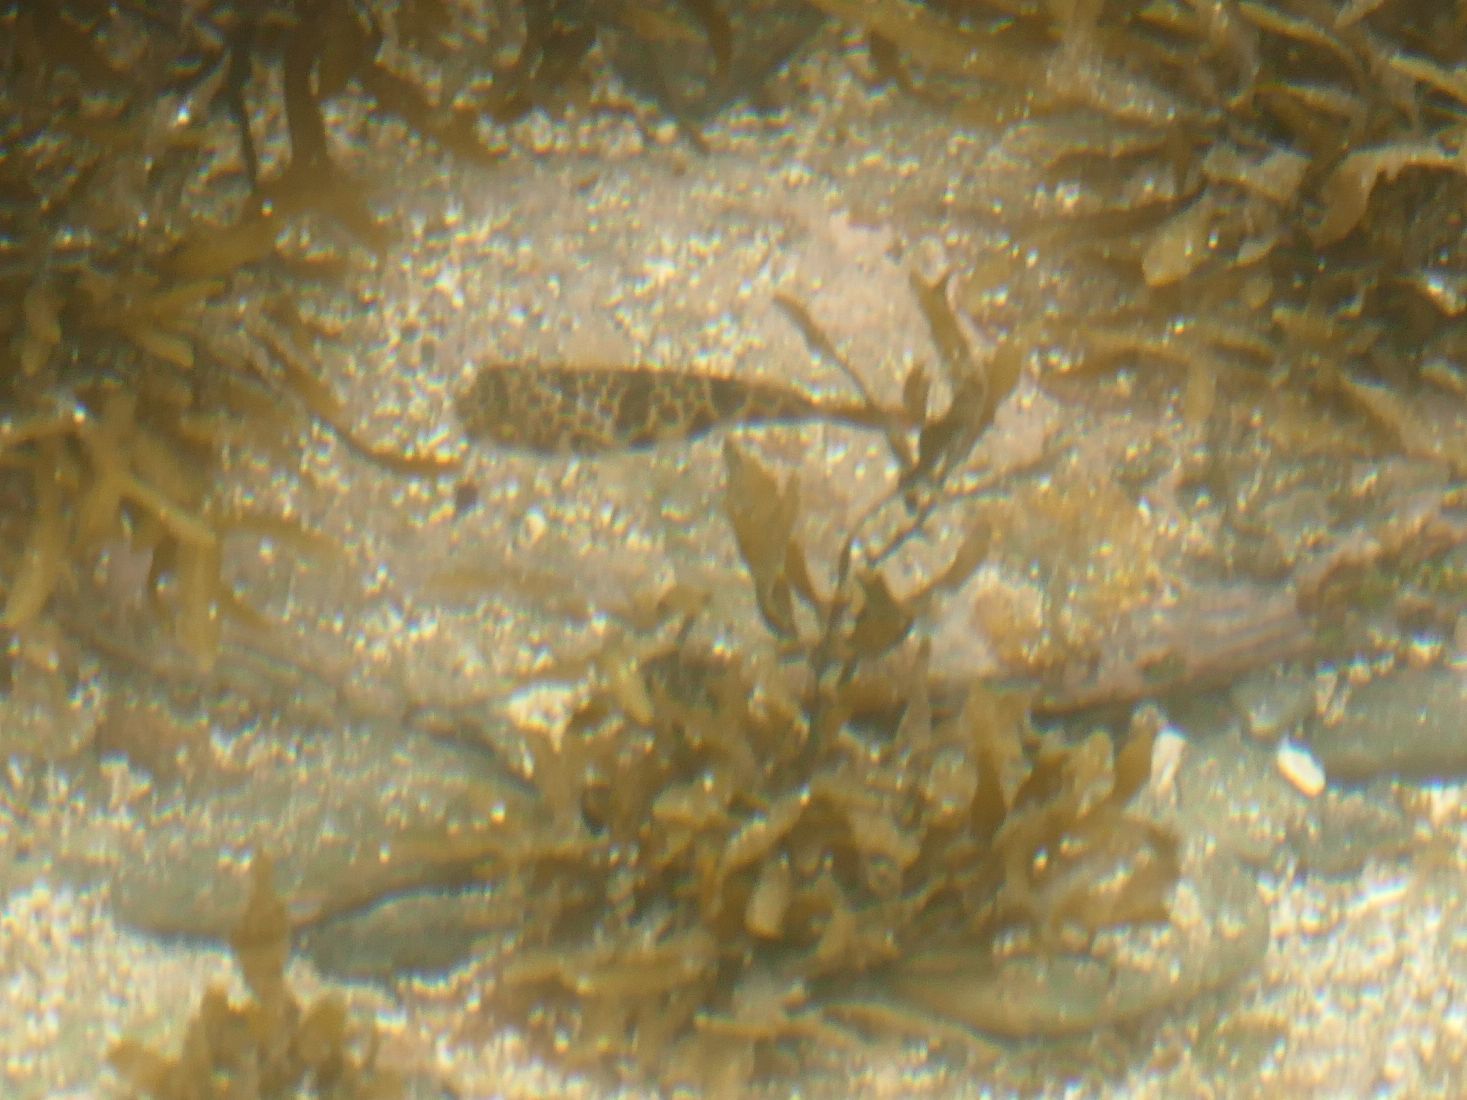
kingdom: Animalia
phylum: Chordata
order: Tetraodontiformes
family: Tetraodontidae
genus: Tetractenos
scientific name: Tetractenos glaber
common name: Smooth toadfish
